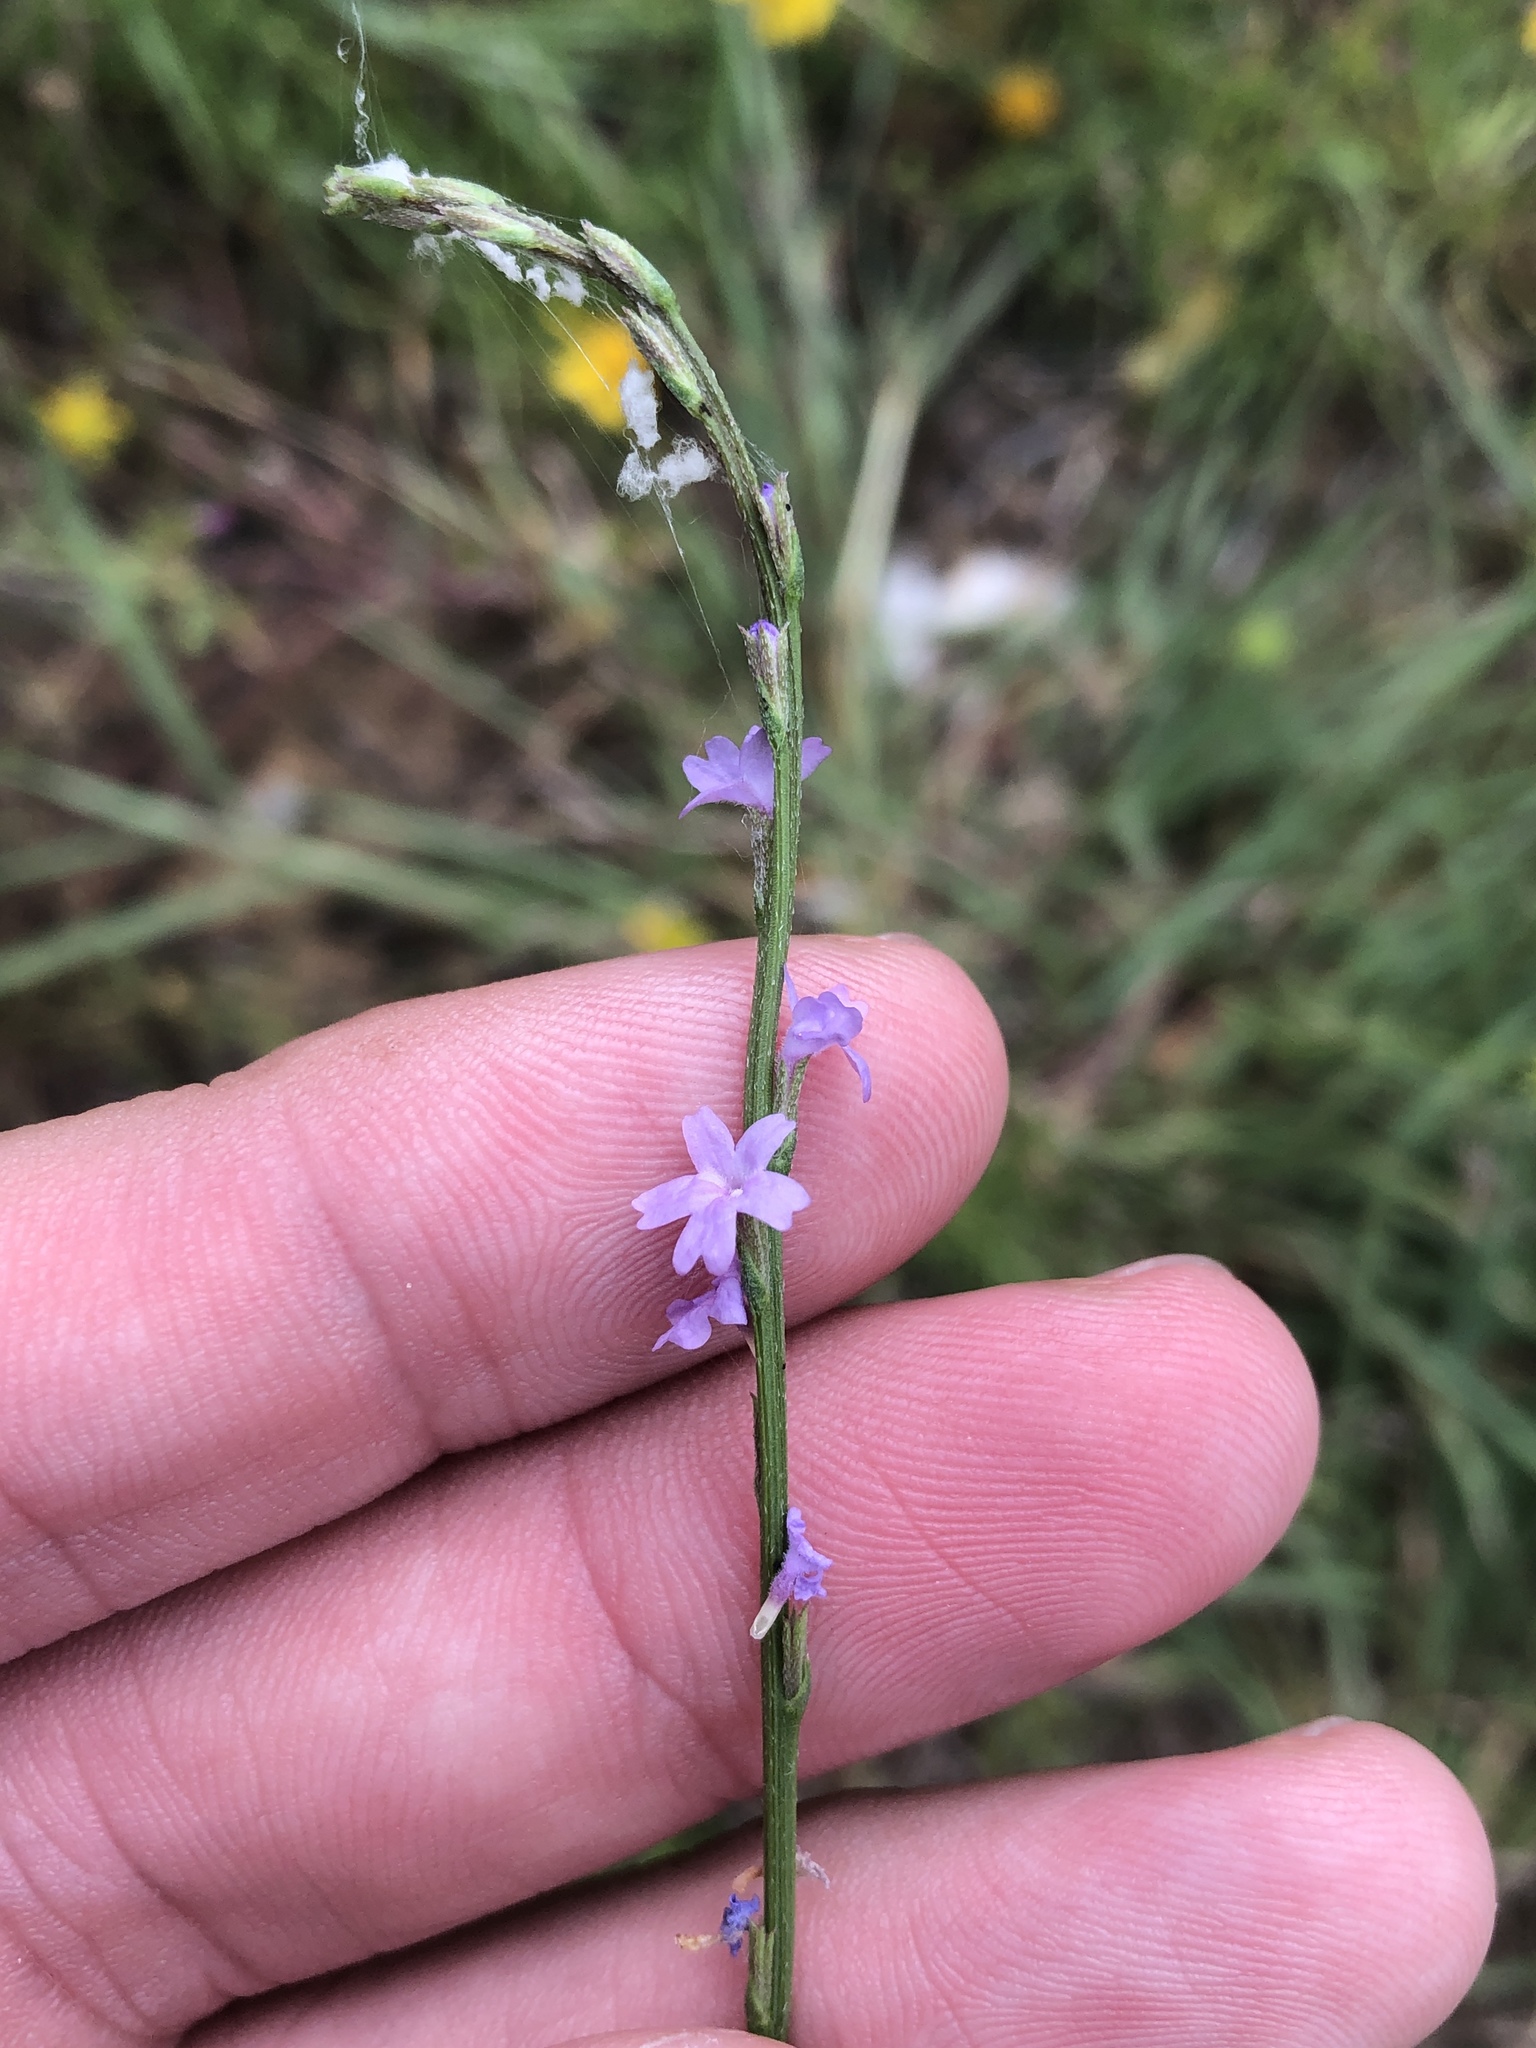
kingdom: Plantae
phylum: Tracheophyta
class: Magnoliopsida
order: Lamiales
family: Verbenaceae
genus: Verbena
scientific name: Verbena halei
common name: Texas vervain
